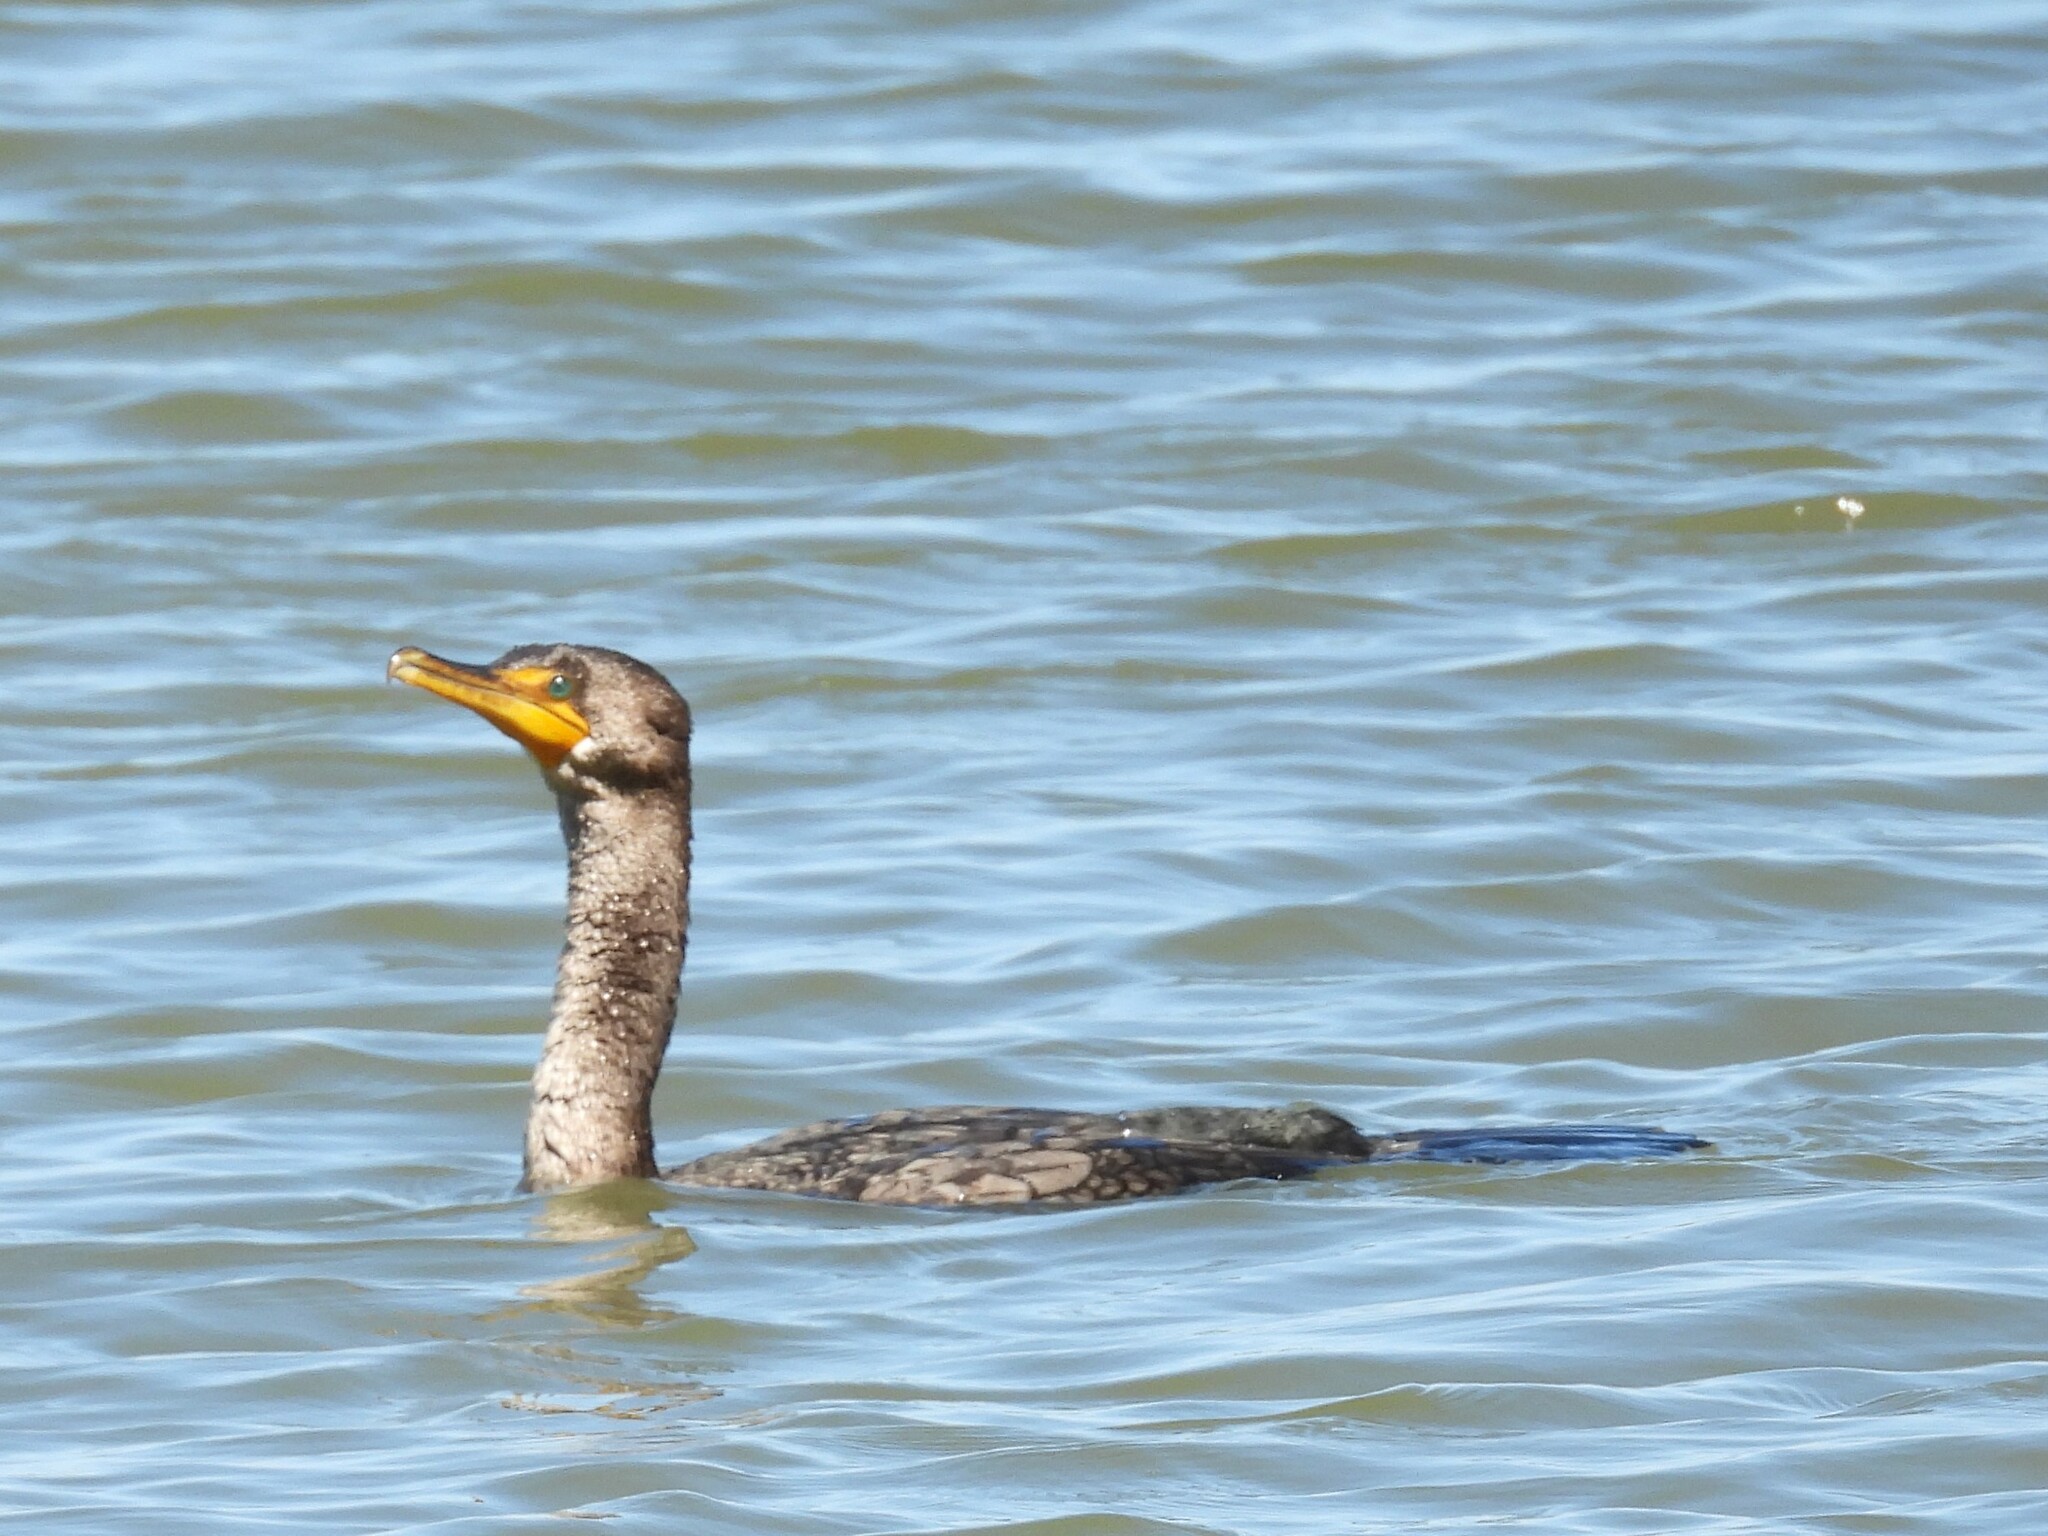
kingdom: Animalia
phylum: Chordata
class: Aves
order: Suliformes
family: Phalacrocoracidae
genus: Phalacrocorax
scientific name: Phalacrocorax auritus
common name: Double-crested cormorant
